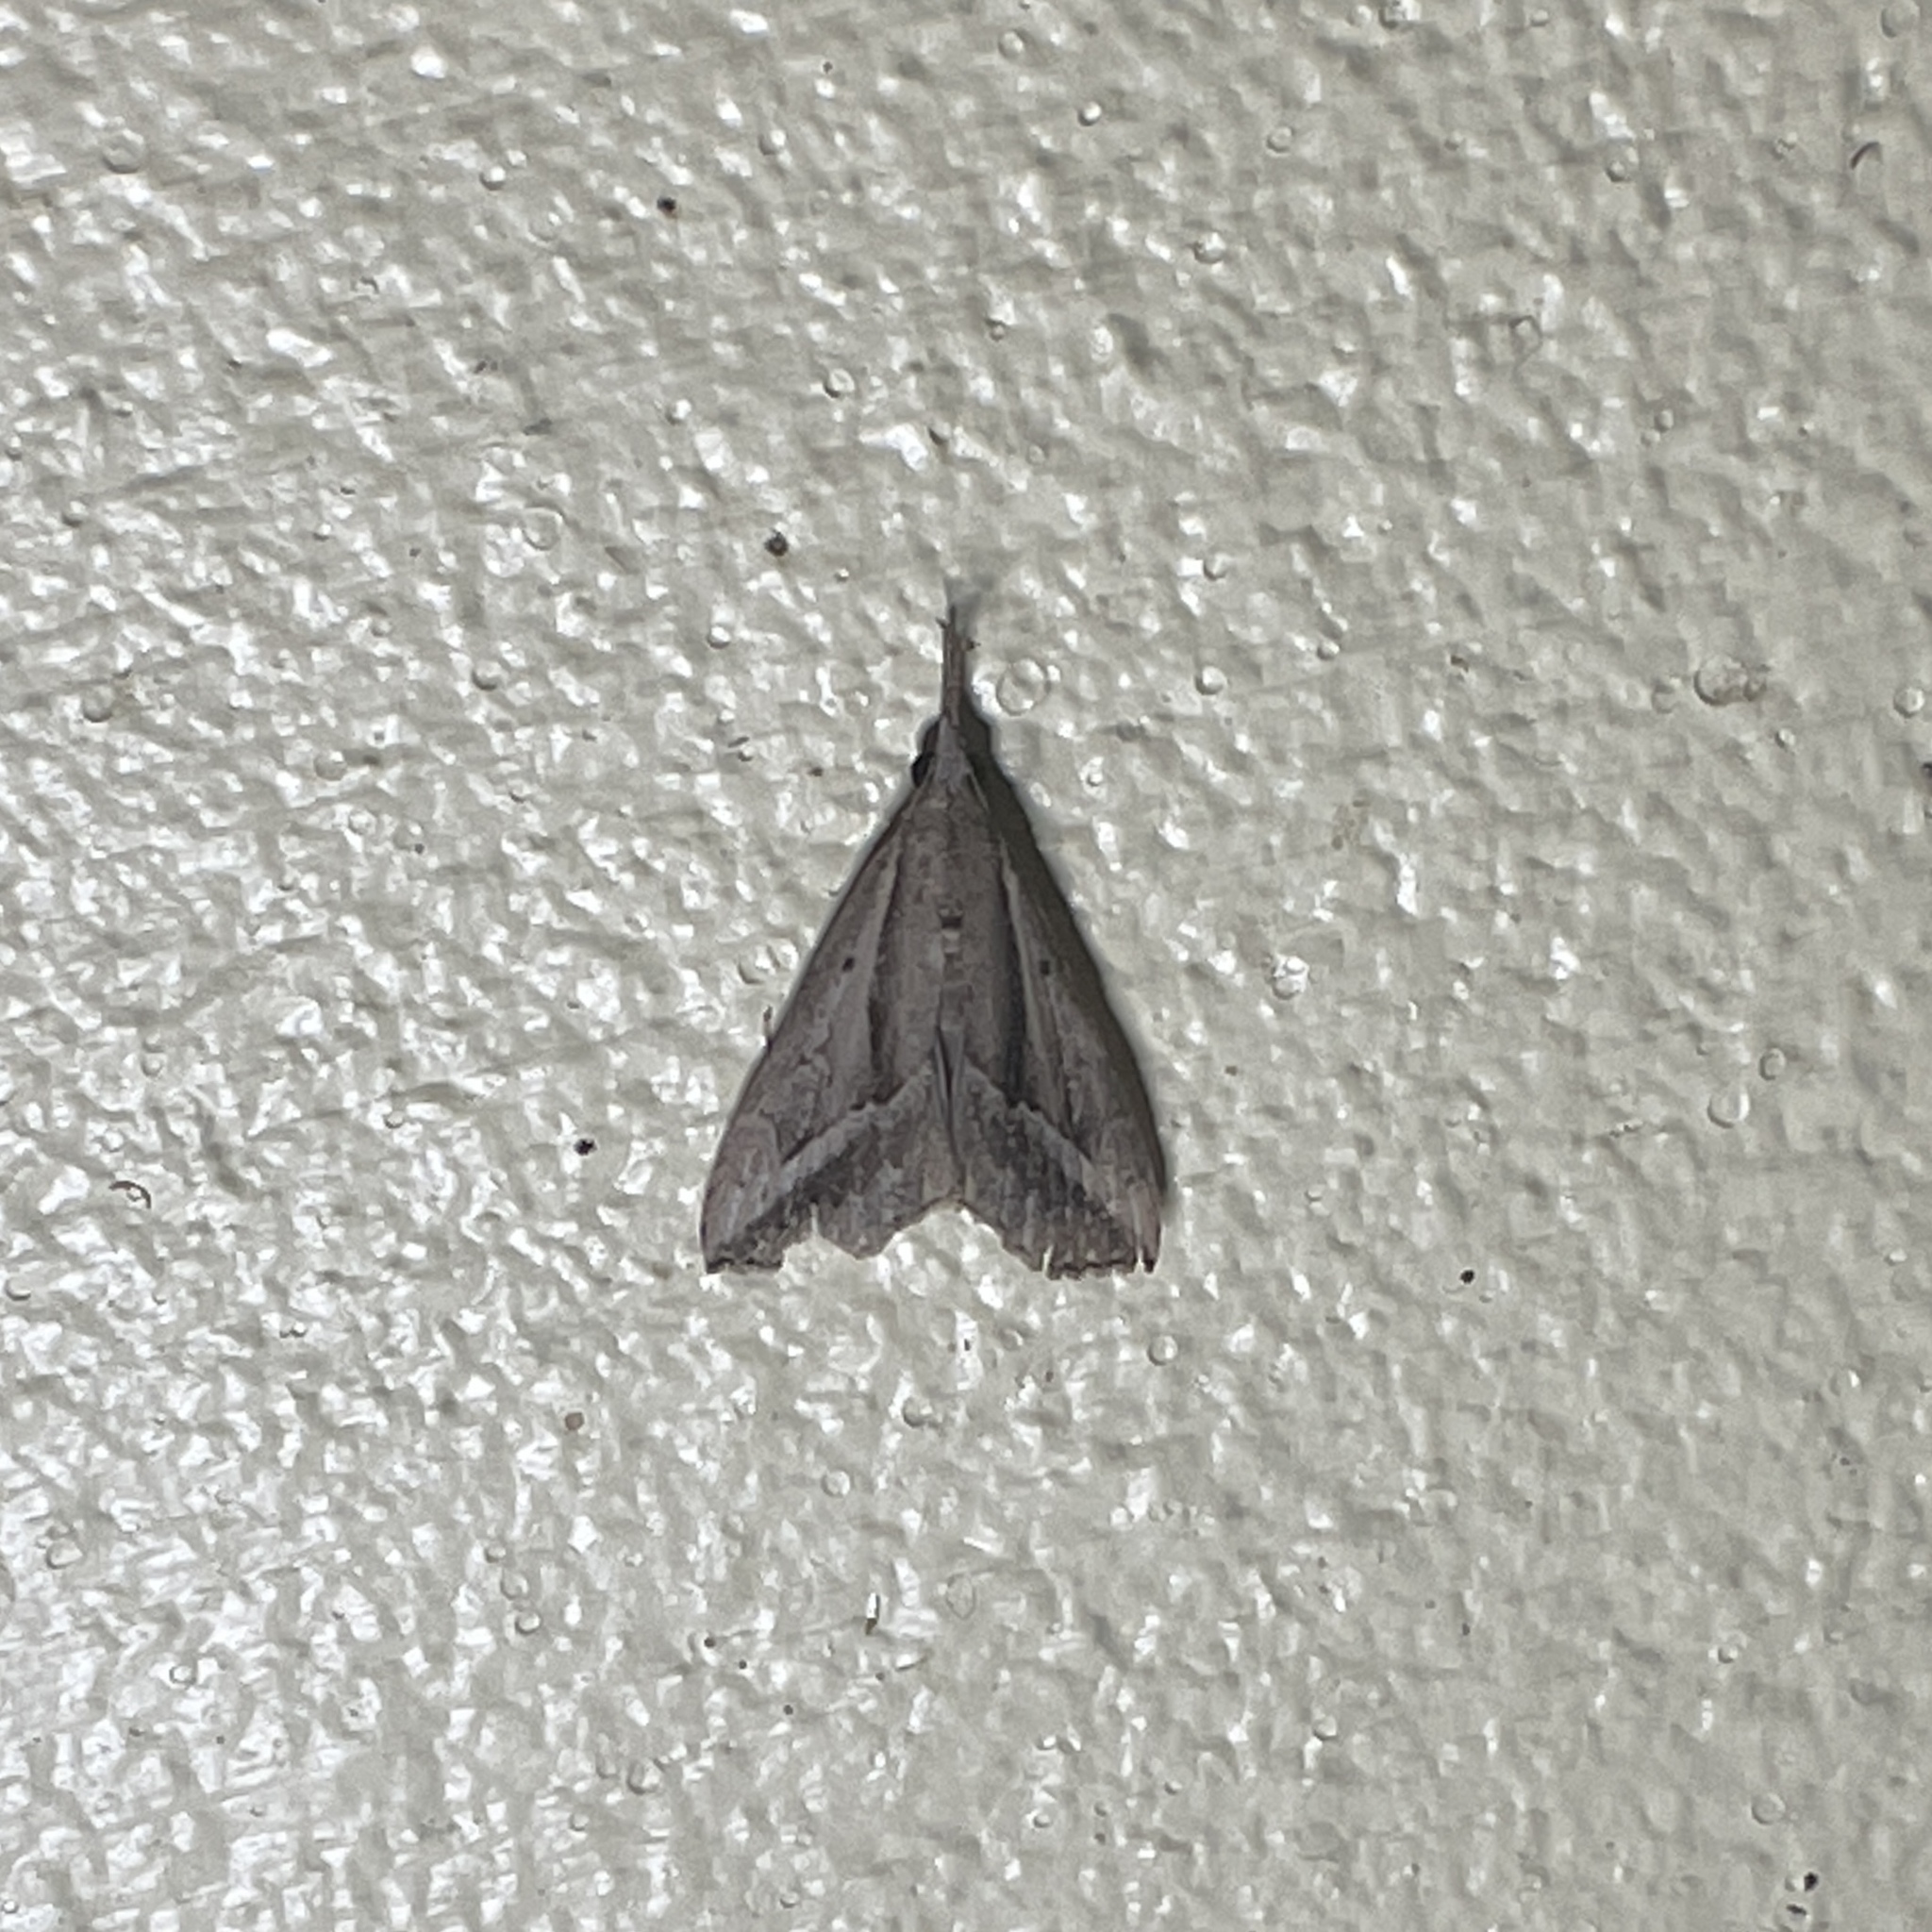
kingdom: Animalia
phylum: Arthropoda
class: Insecta
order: Lepidoptera
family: Erebidae
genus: Hypena
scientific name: Hypena fufialis
